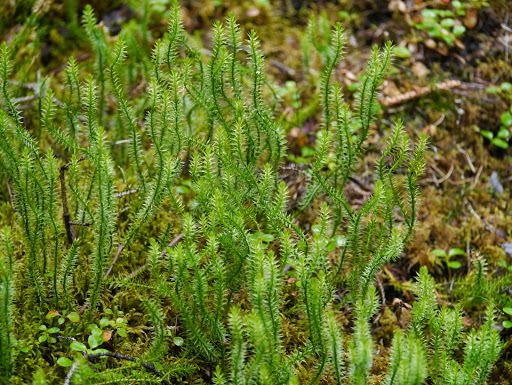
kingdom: Plantae
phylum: Tracheophyta
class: Lycopodiopsida
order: Lycopodiales
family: Lycopodiaceae
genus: Spinulum
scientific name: Spinulum annotinum
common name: Interrupted club-moss
